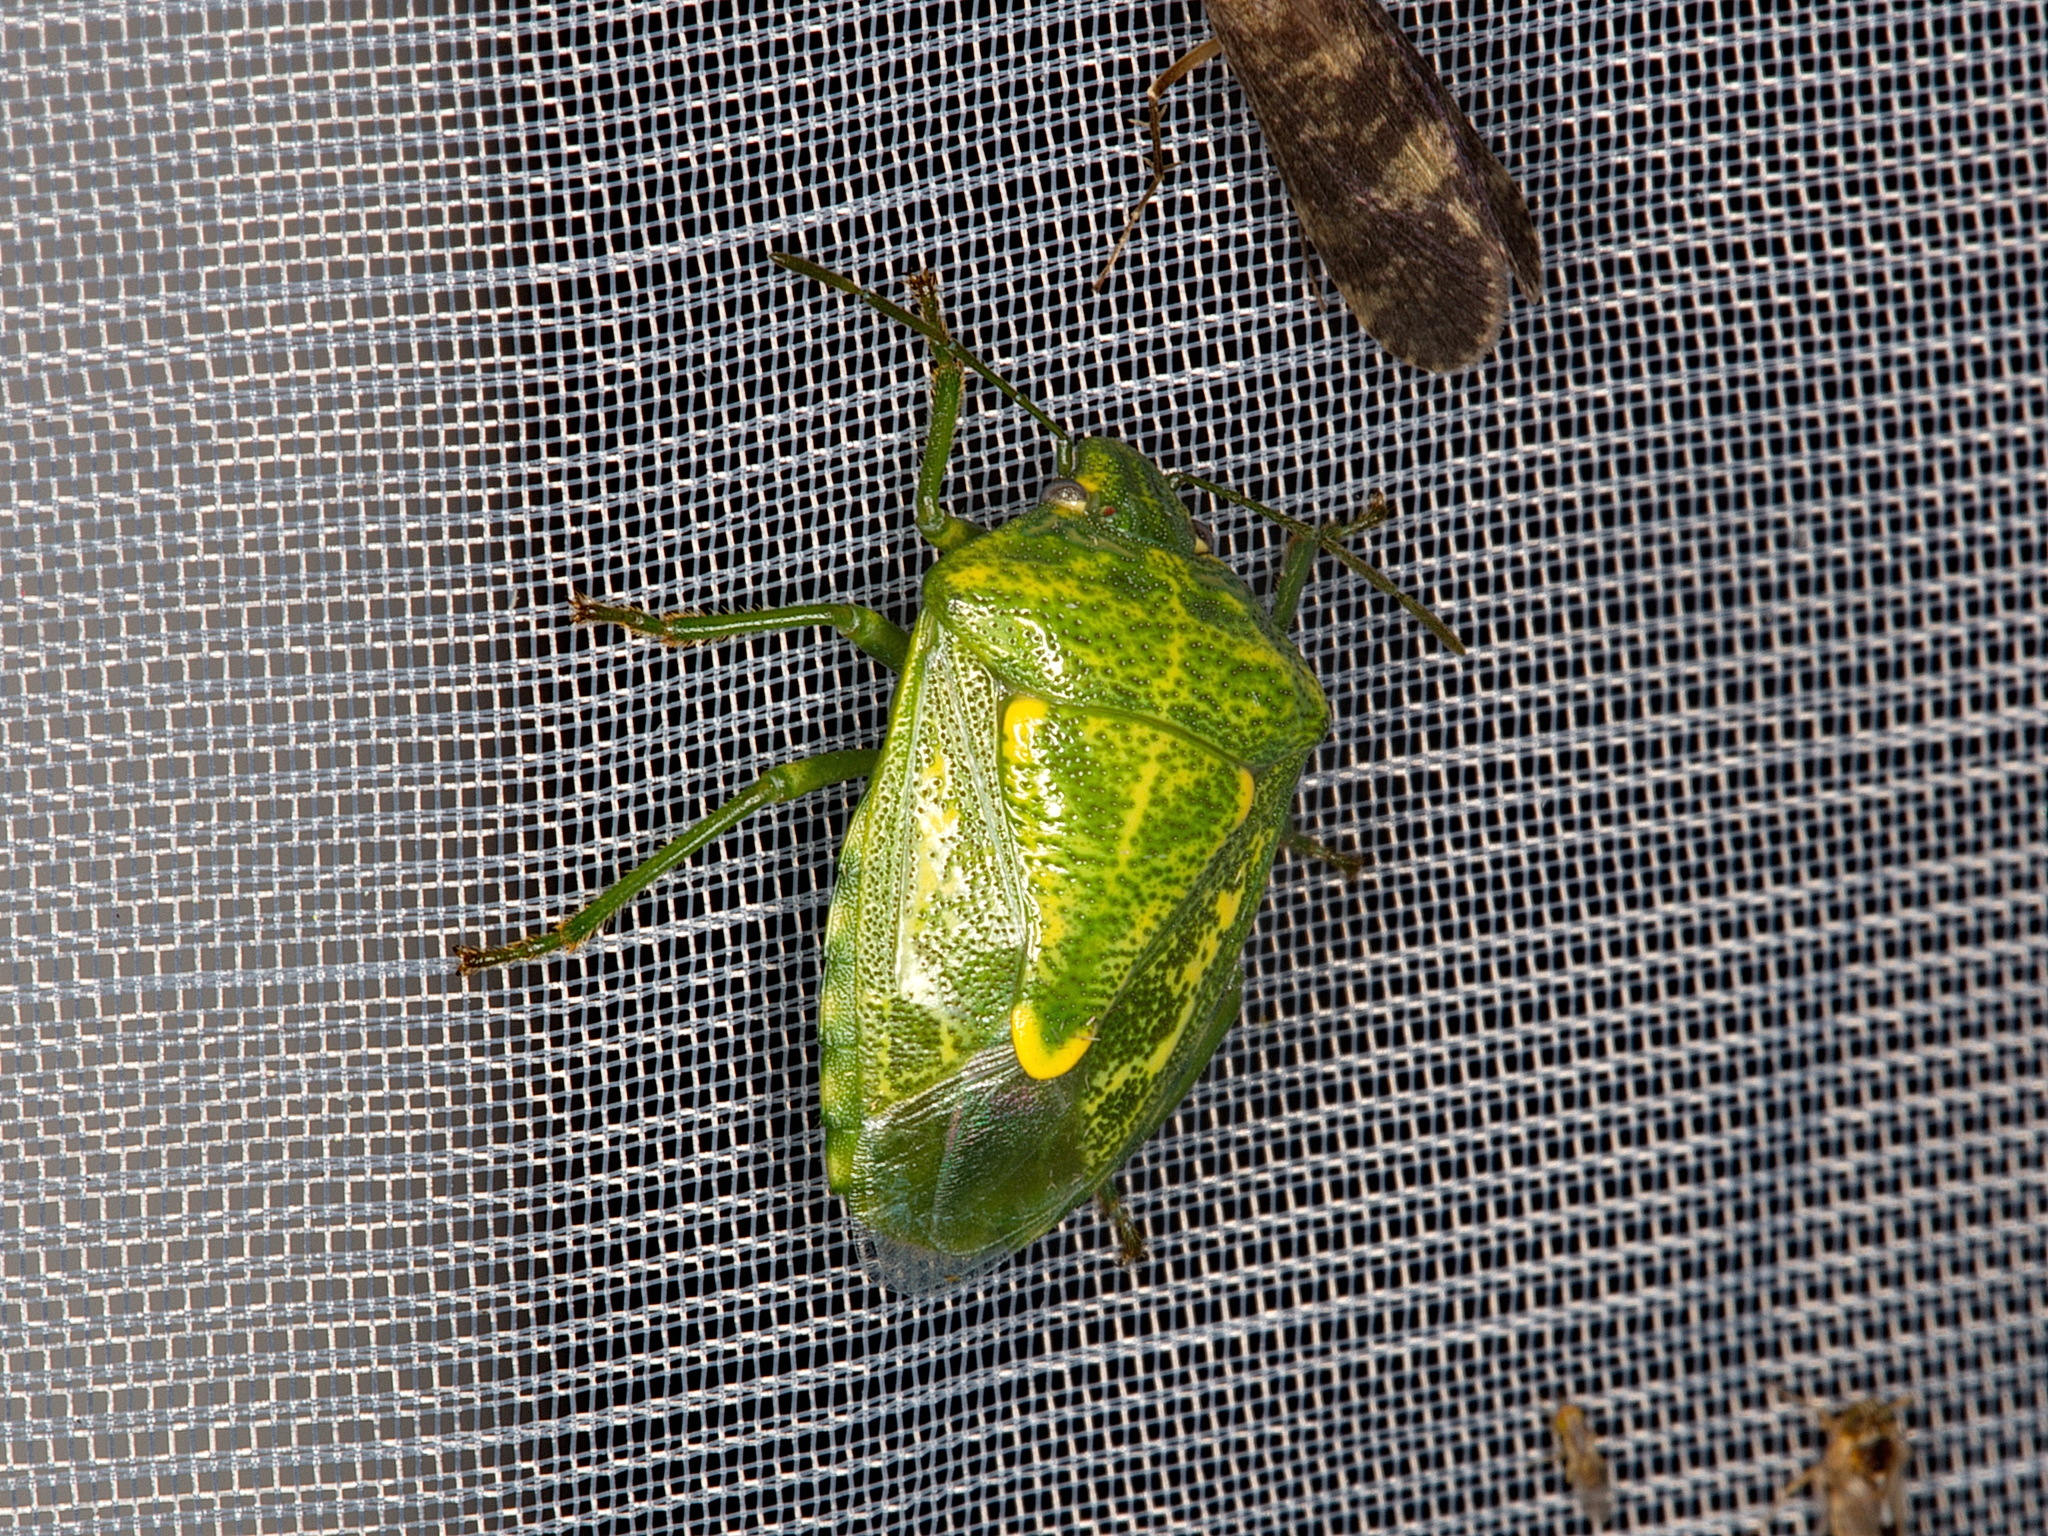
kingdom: Animalia
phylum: Arthropoda
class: Insecta
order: Hemiptera
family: Pentatomidae
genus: Banasa
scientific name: Banasa euchlora
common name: Cedar berry bug
